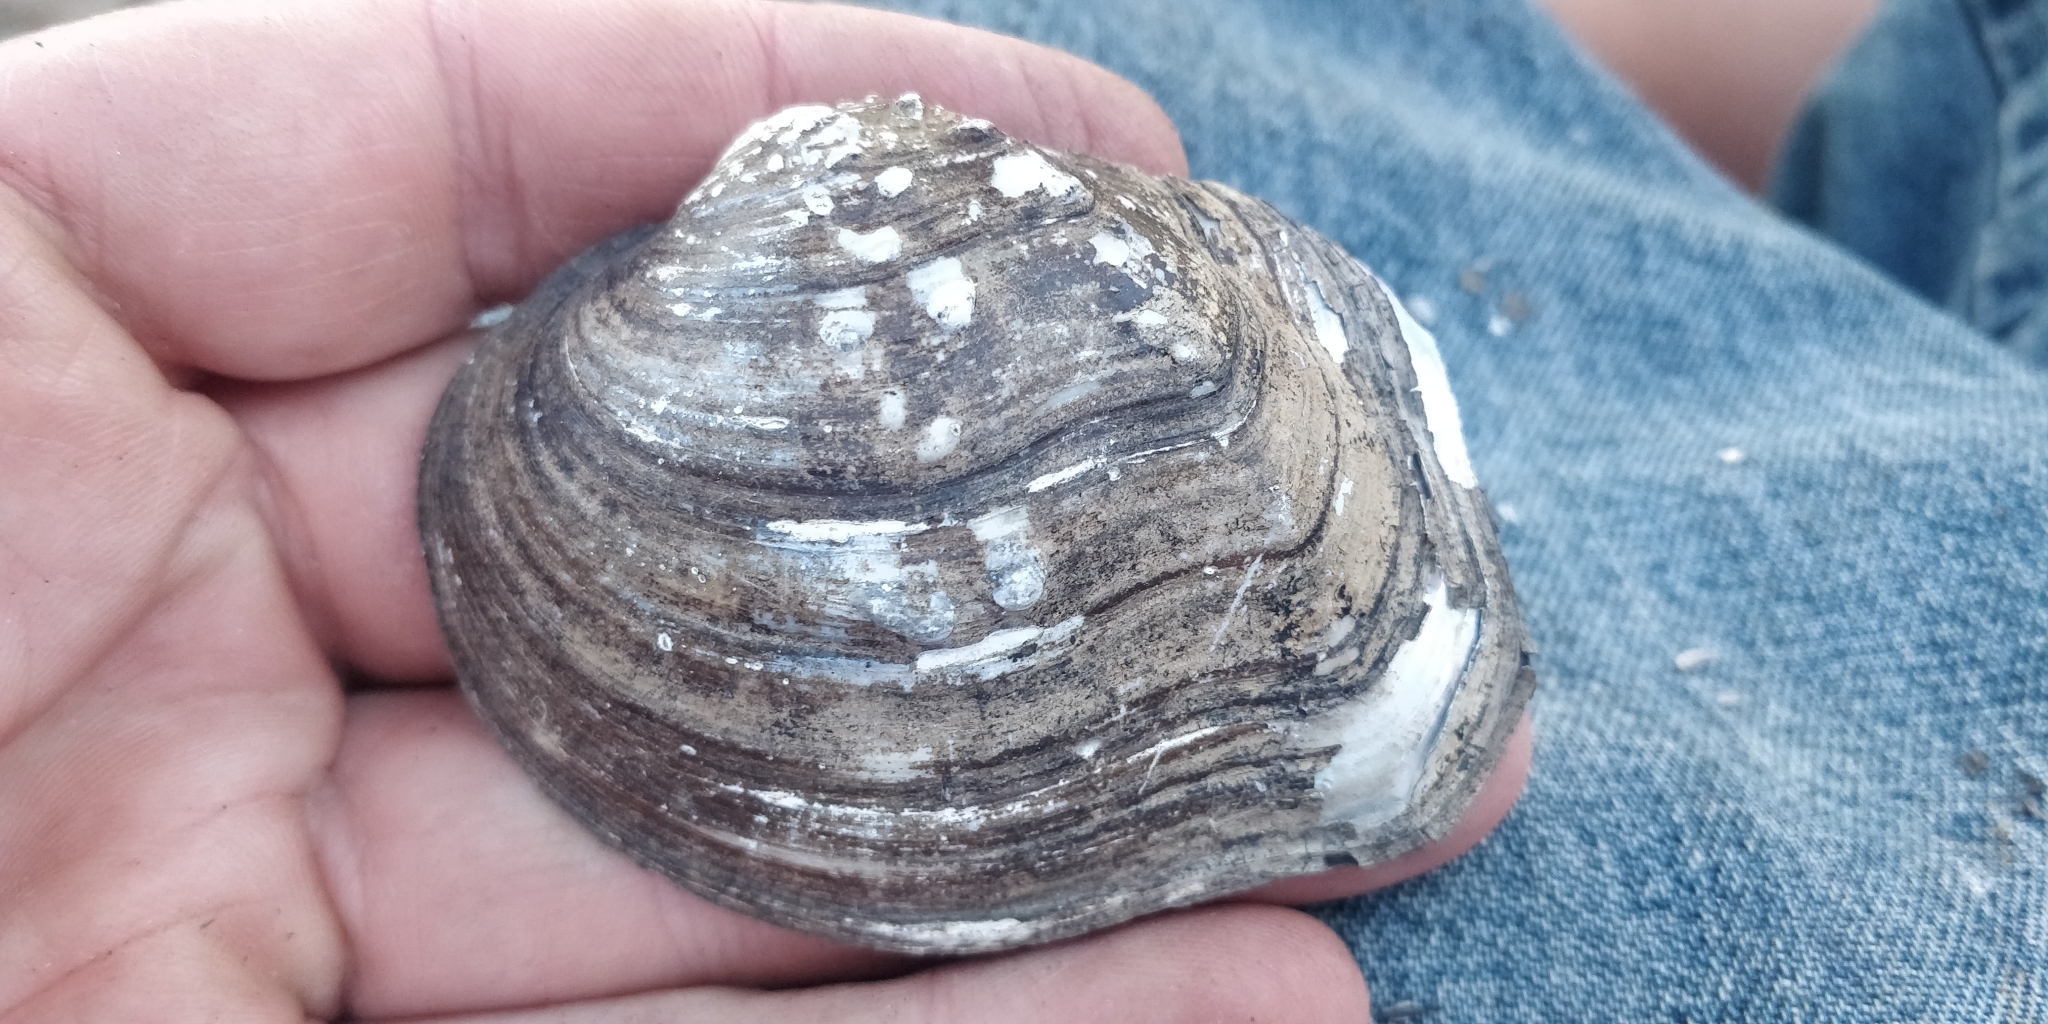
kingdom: Animalia
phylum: Mollusca
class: Bivalvia
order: Unionida
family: Unionidae
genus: Quadrula
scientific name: Quadrula quadrula
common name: Mapleleaf
